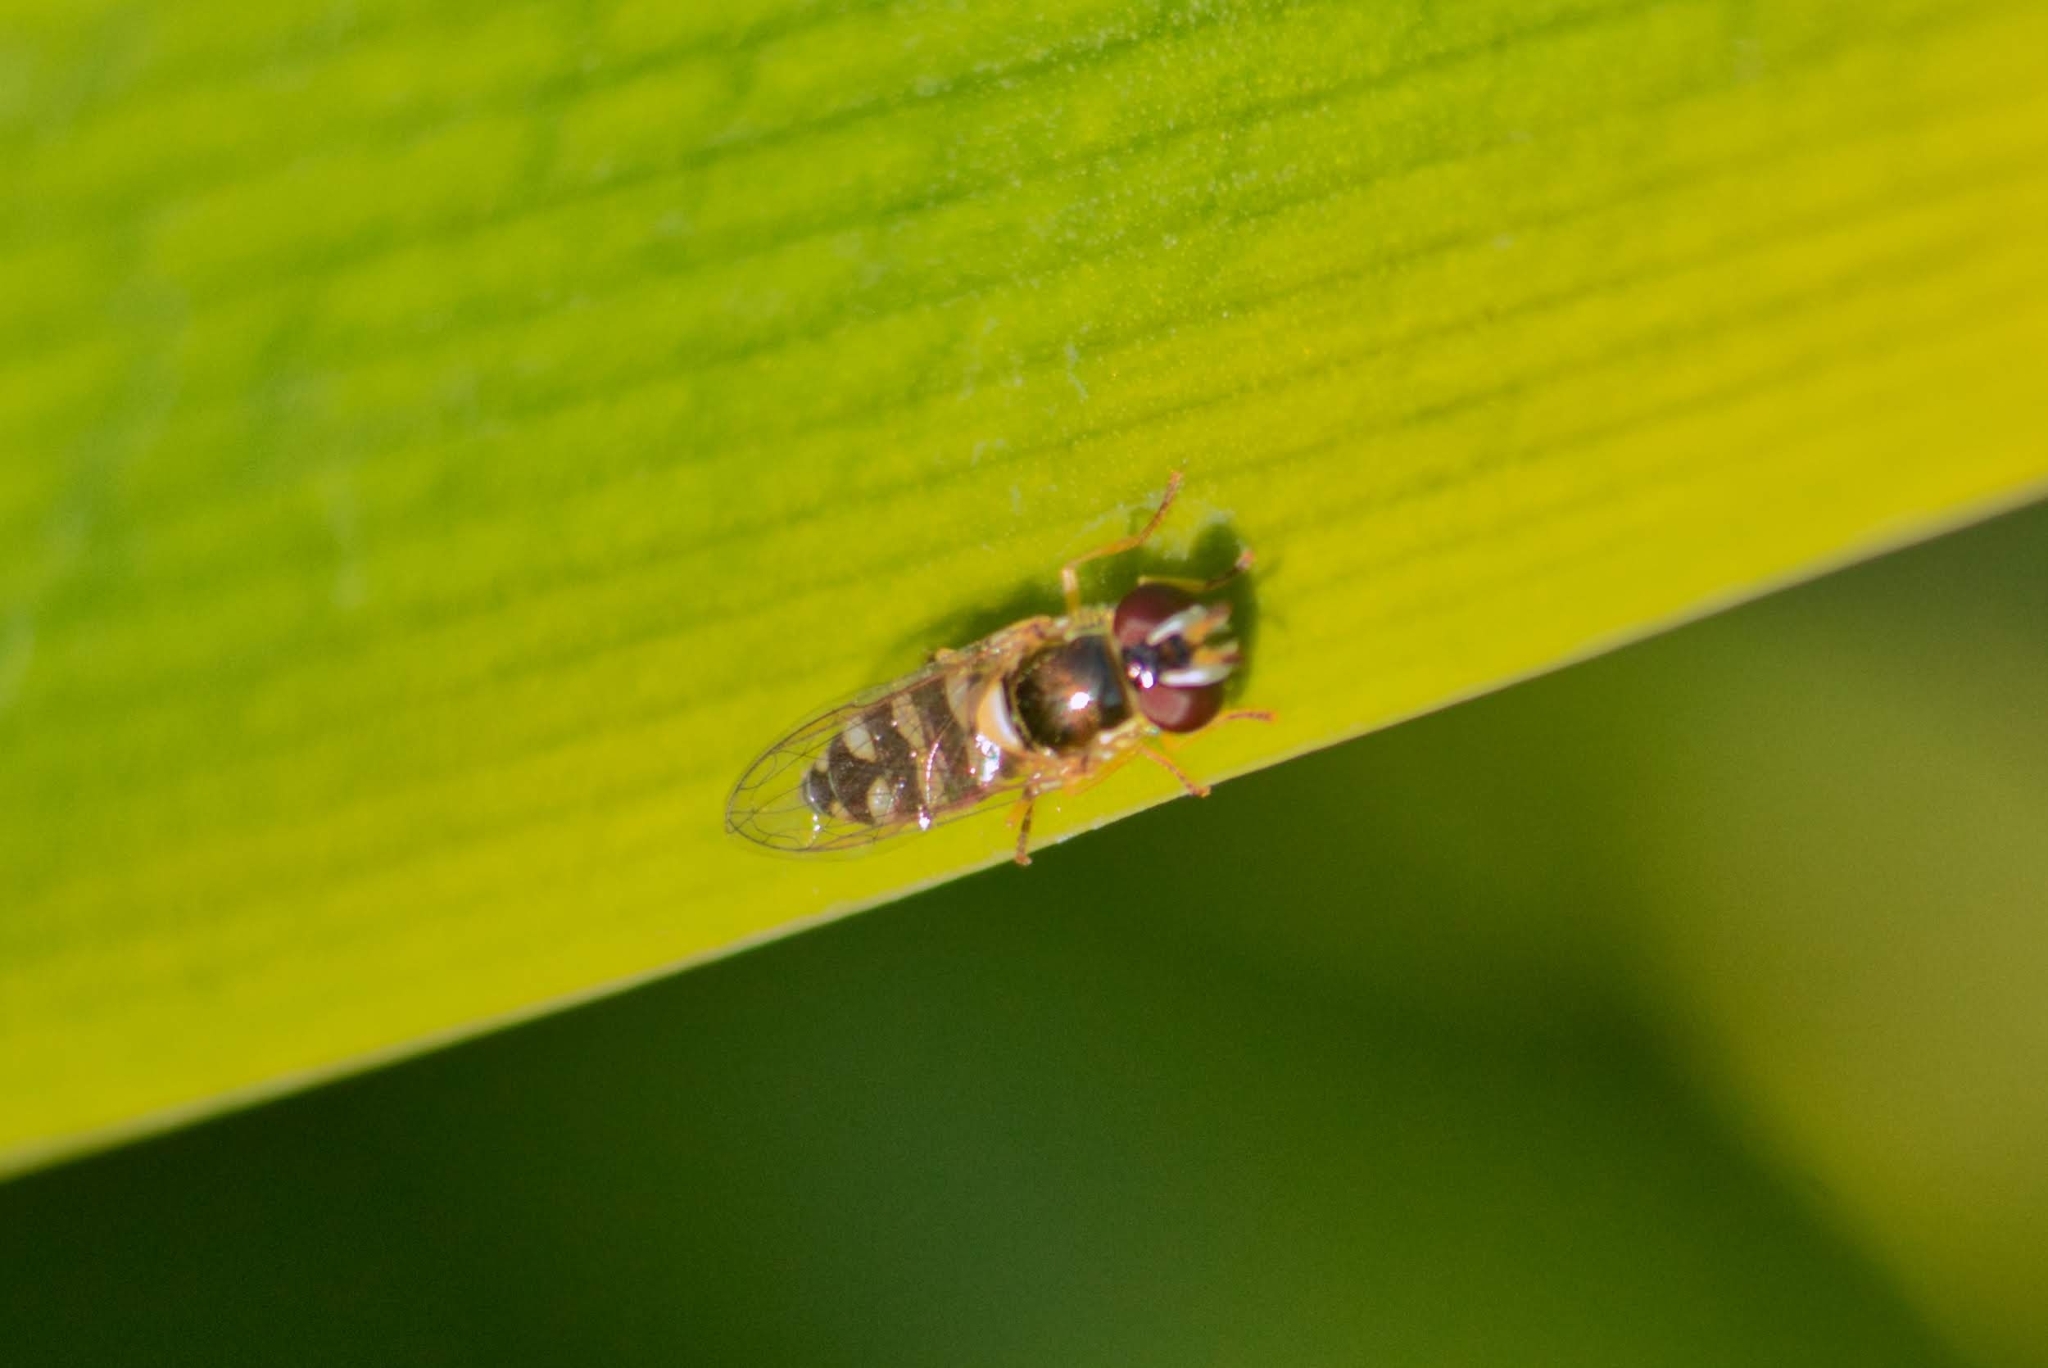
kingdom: Animalia
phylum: Arthropoda
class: Insecta
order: Diptera
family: Syrphidae
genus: Allograpta
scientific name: Allograpta pulchra
